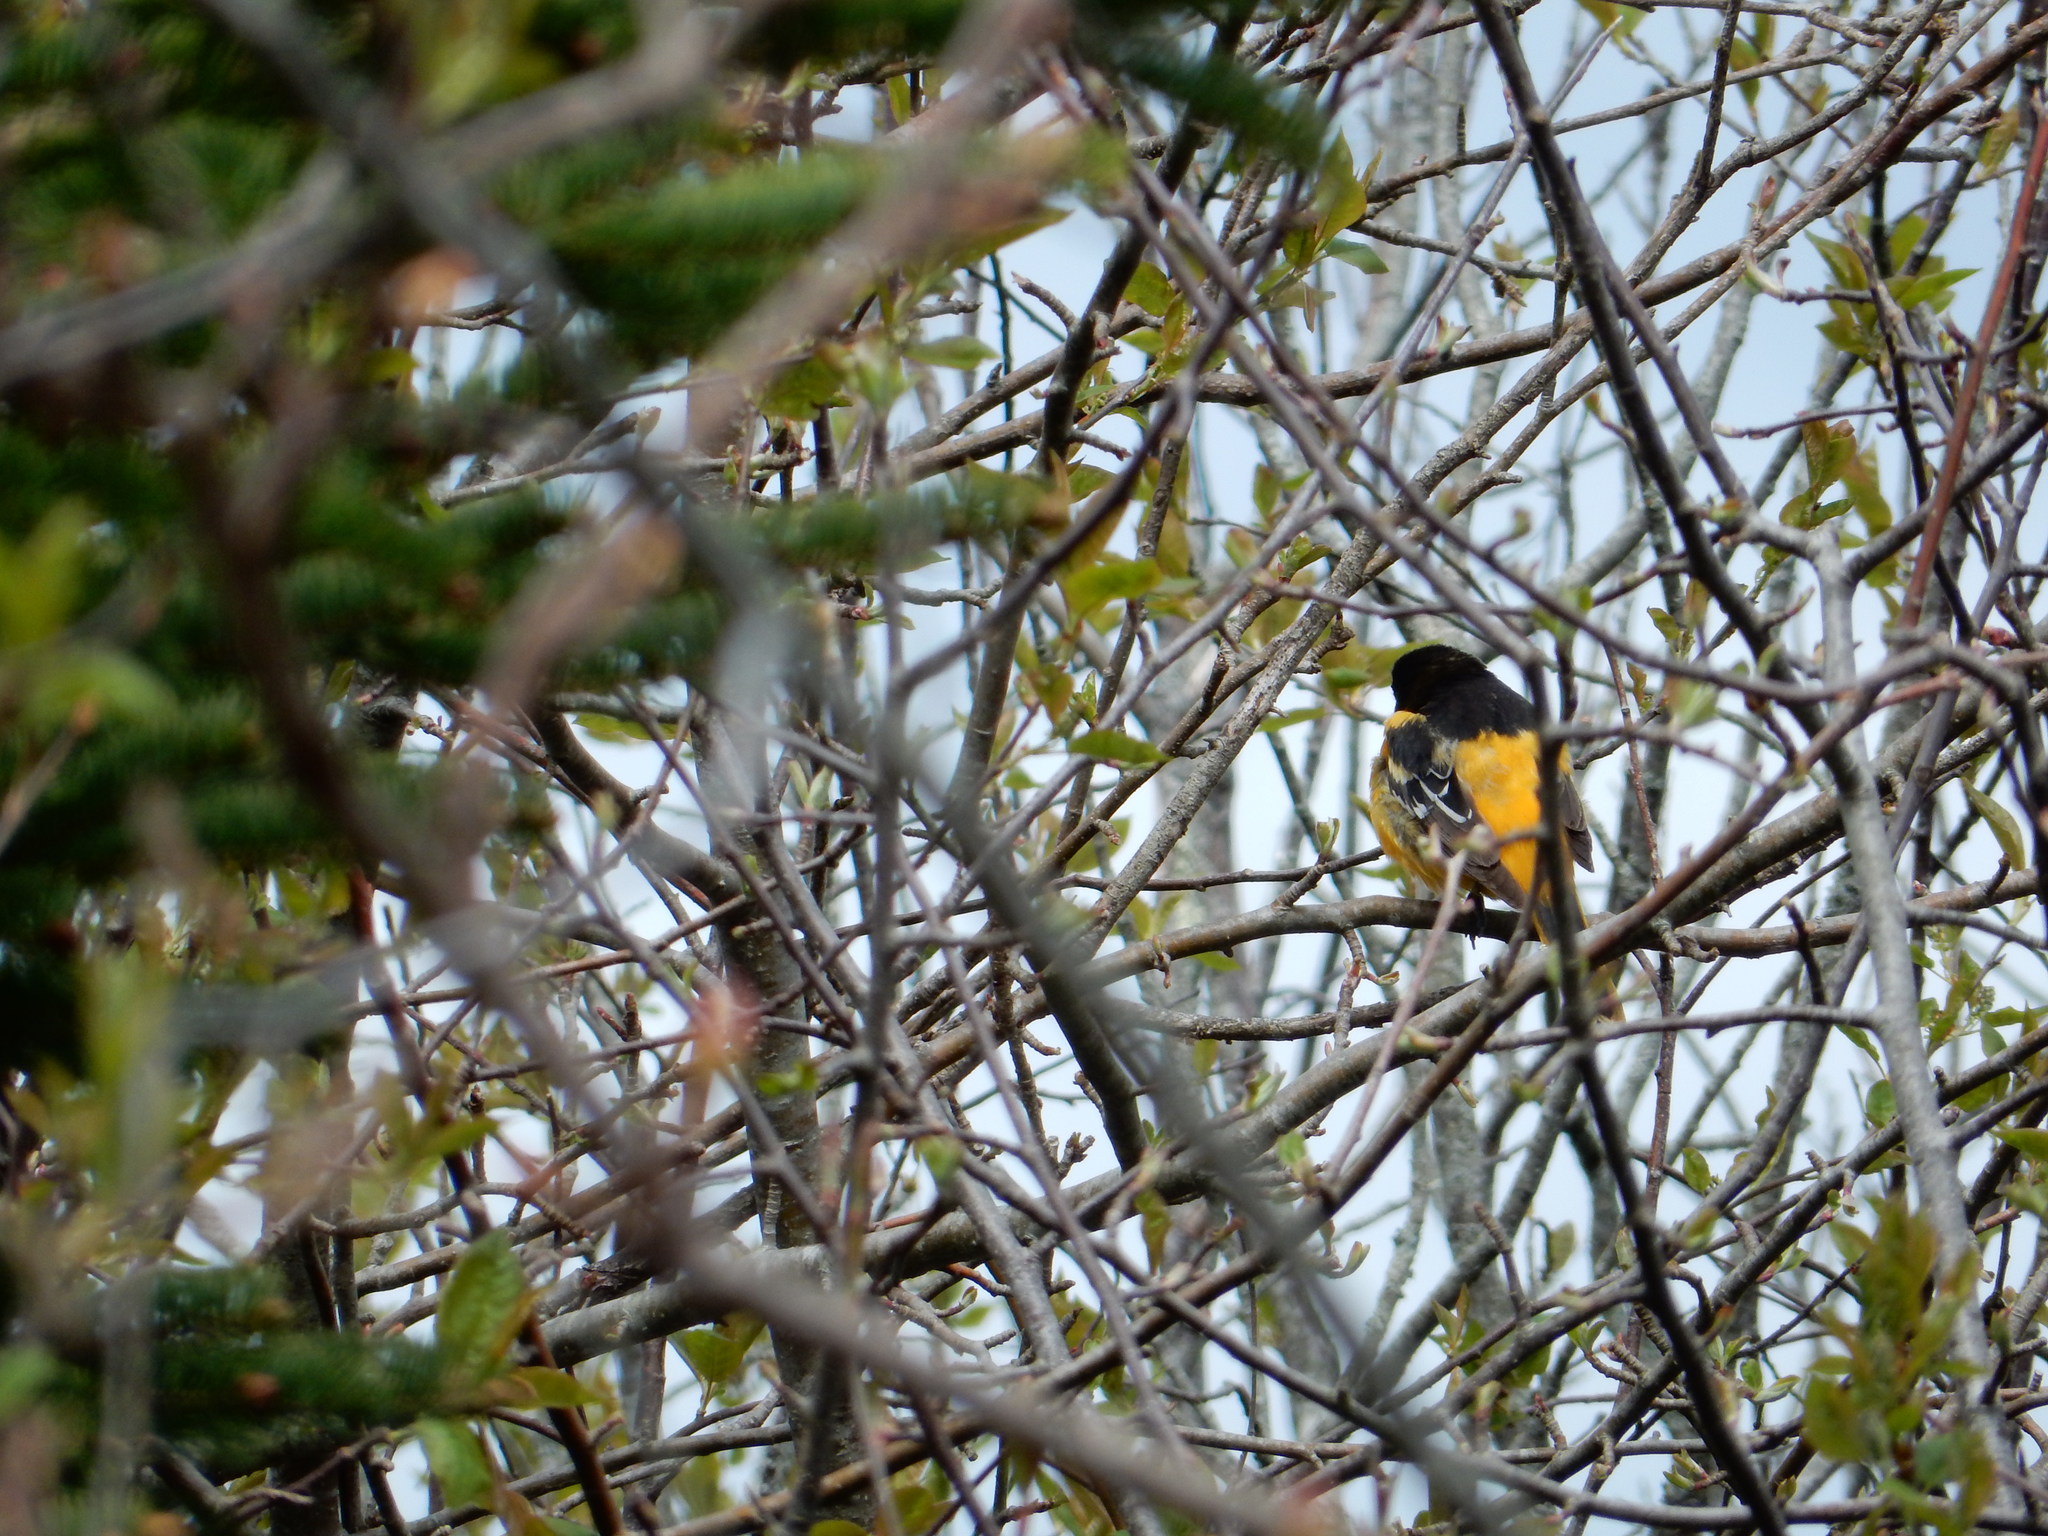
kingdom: Animalia
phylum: Chordata
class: Aves
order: Passeriformes
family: Icteridae
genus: Icterus
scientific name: Icterus galbula
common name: Baltimore oriole
